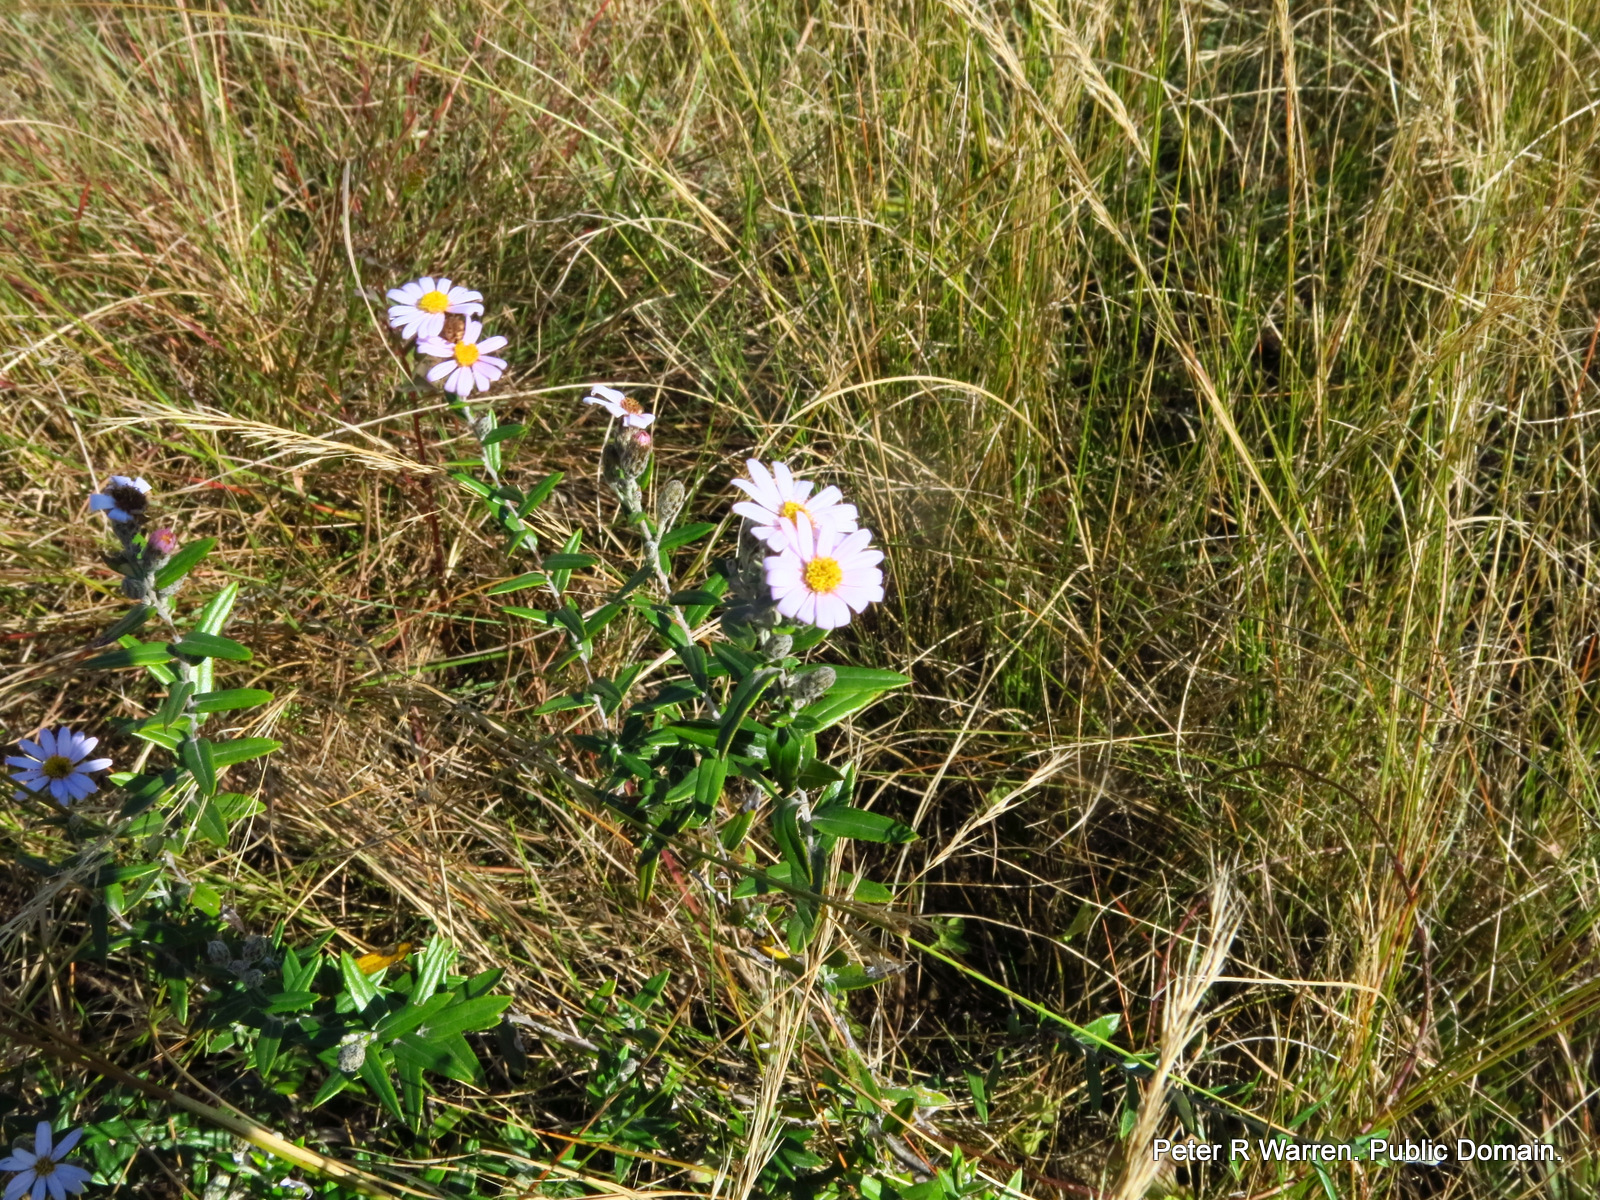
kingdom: Plantae
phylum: Tracheophyta
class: Magnoliopsida
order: Asterales
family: Asteraceae
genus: Athrixia
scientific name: Athrixia phylicoides
